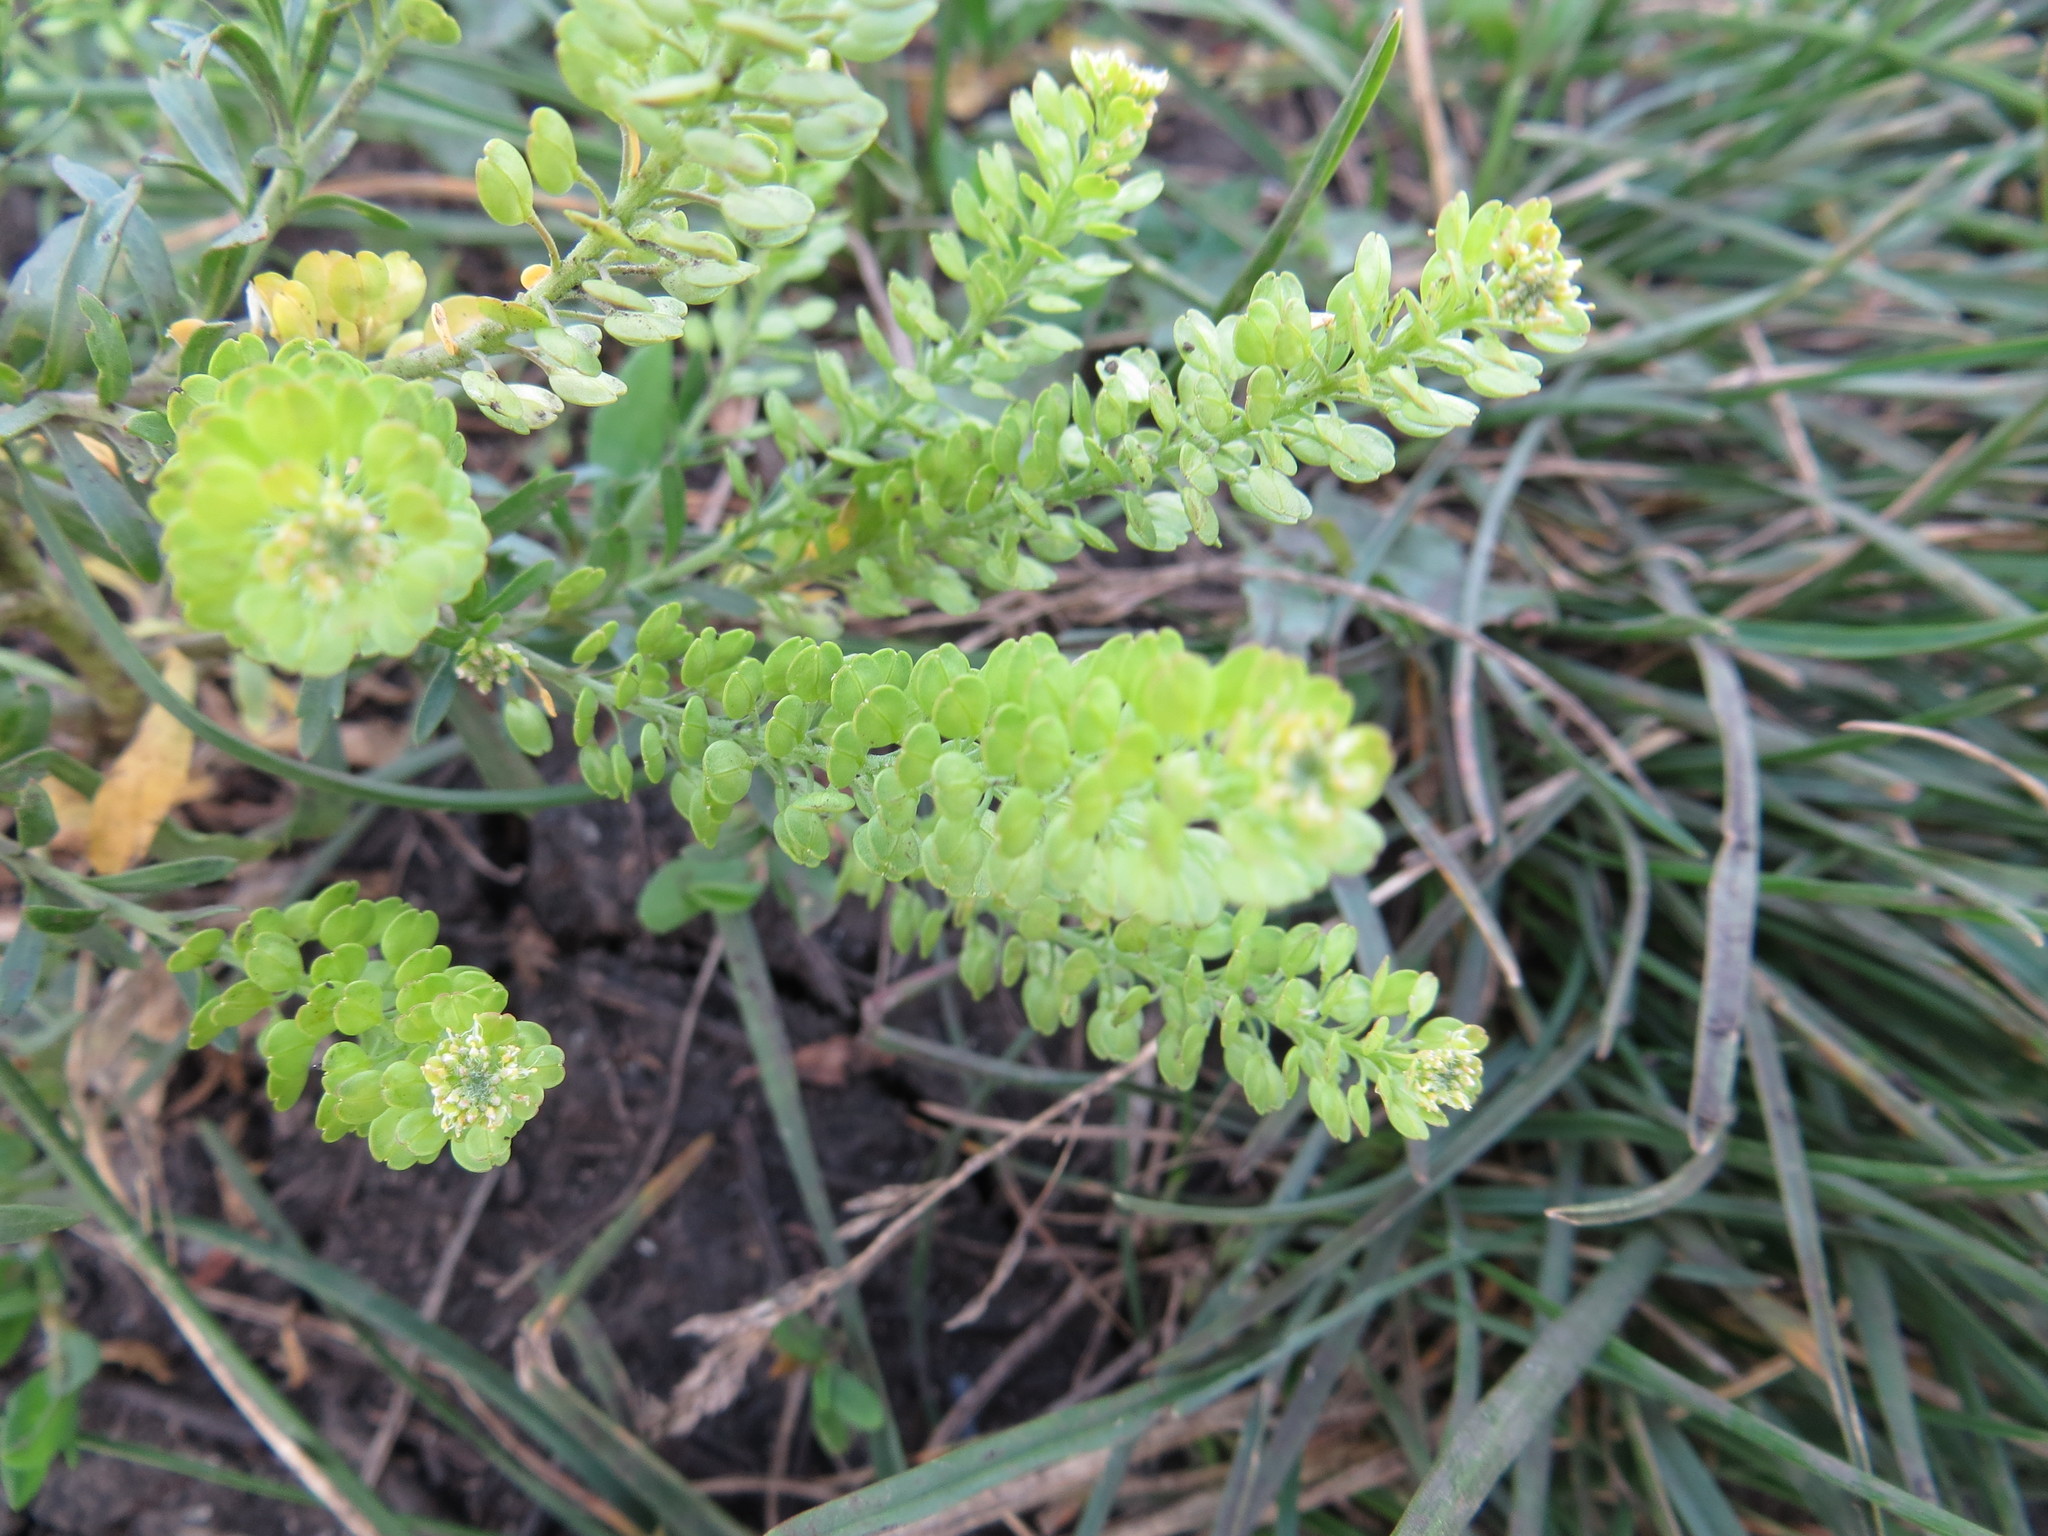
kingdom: Plantae
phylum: Tracheophyta
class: Magnoliopsida
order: Brassicales
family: Brassicaceae
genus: Lepidium
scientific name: Lepidium densiflorum
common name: Miner's pepperwort
